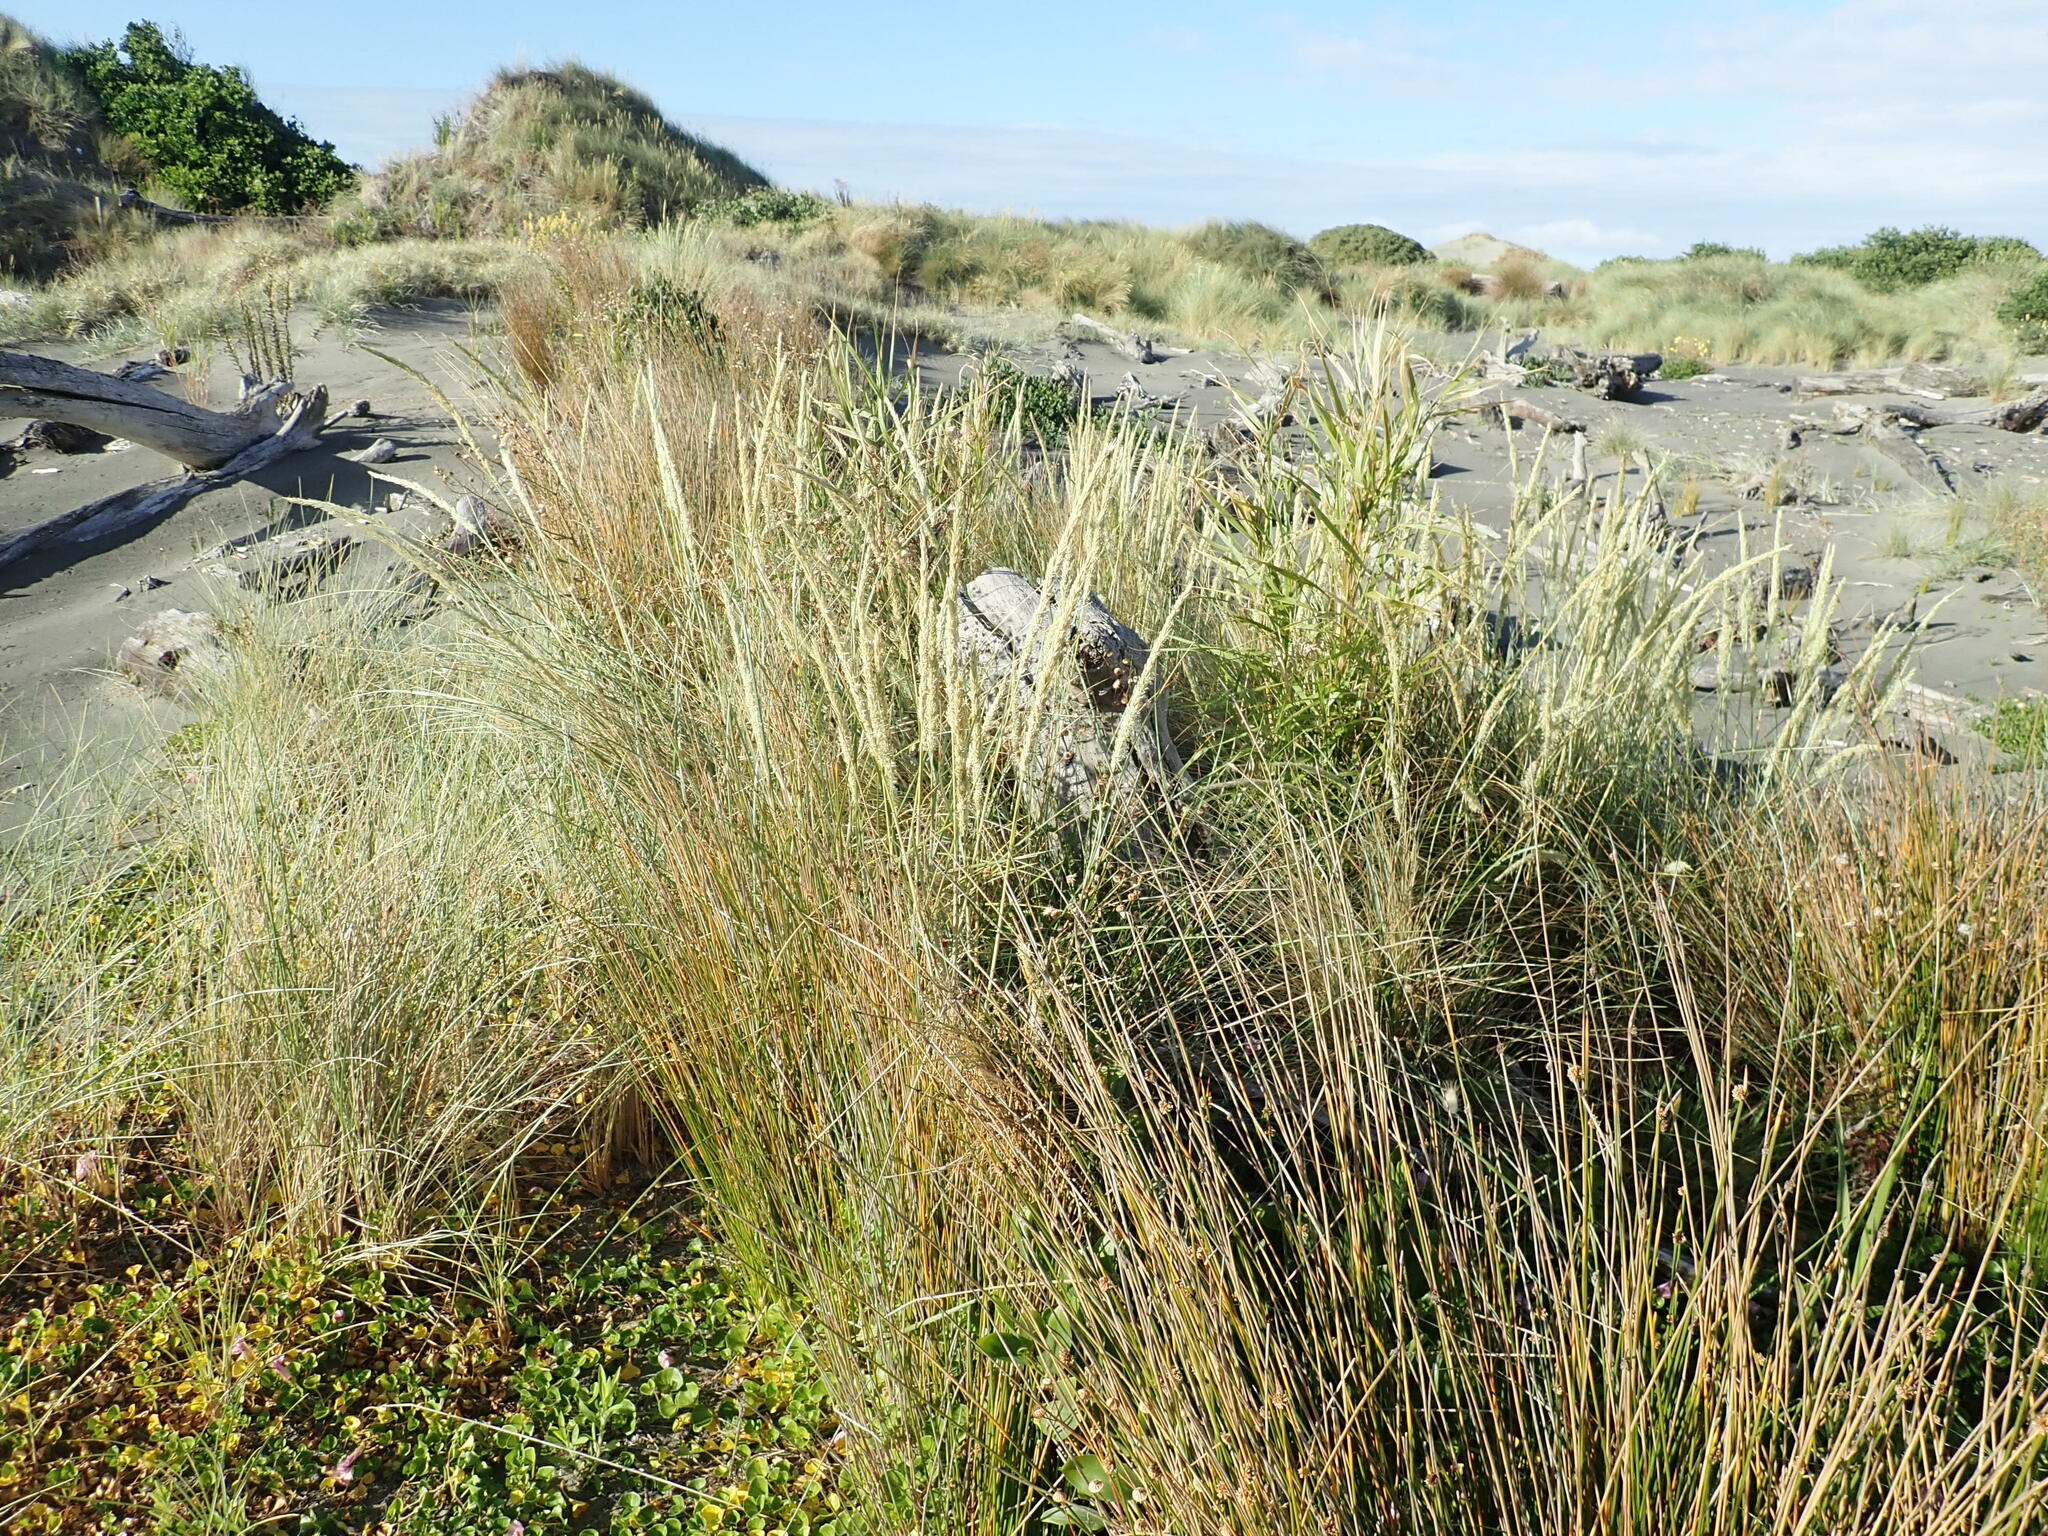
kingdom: Plantae
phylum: Tracheophyta
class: Liliopsida
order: Poales
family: Poaceae
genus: Calamagrostis
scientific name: Calamagrostis arenaria
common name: European beachgrass
